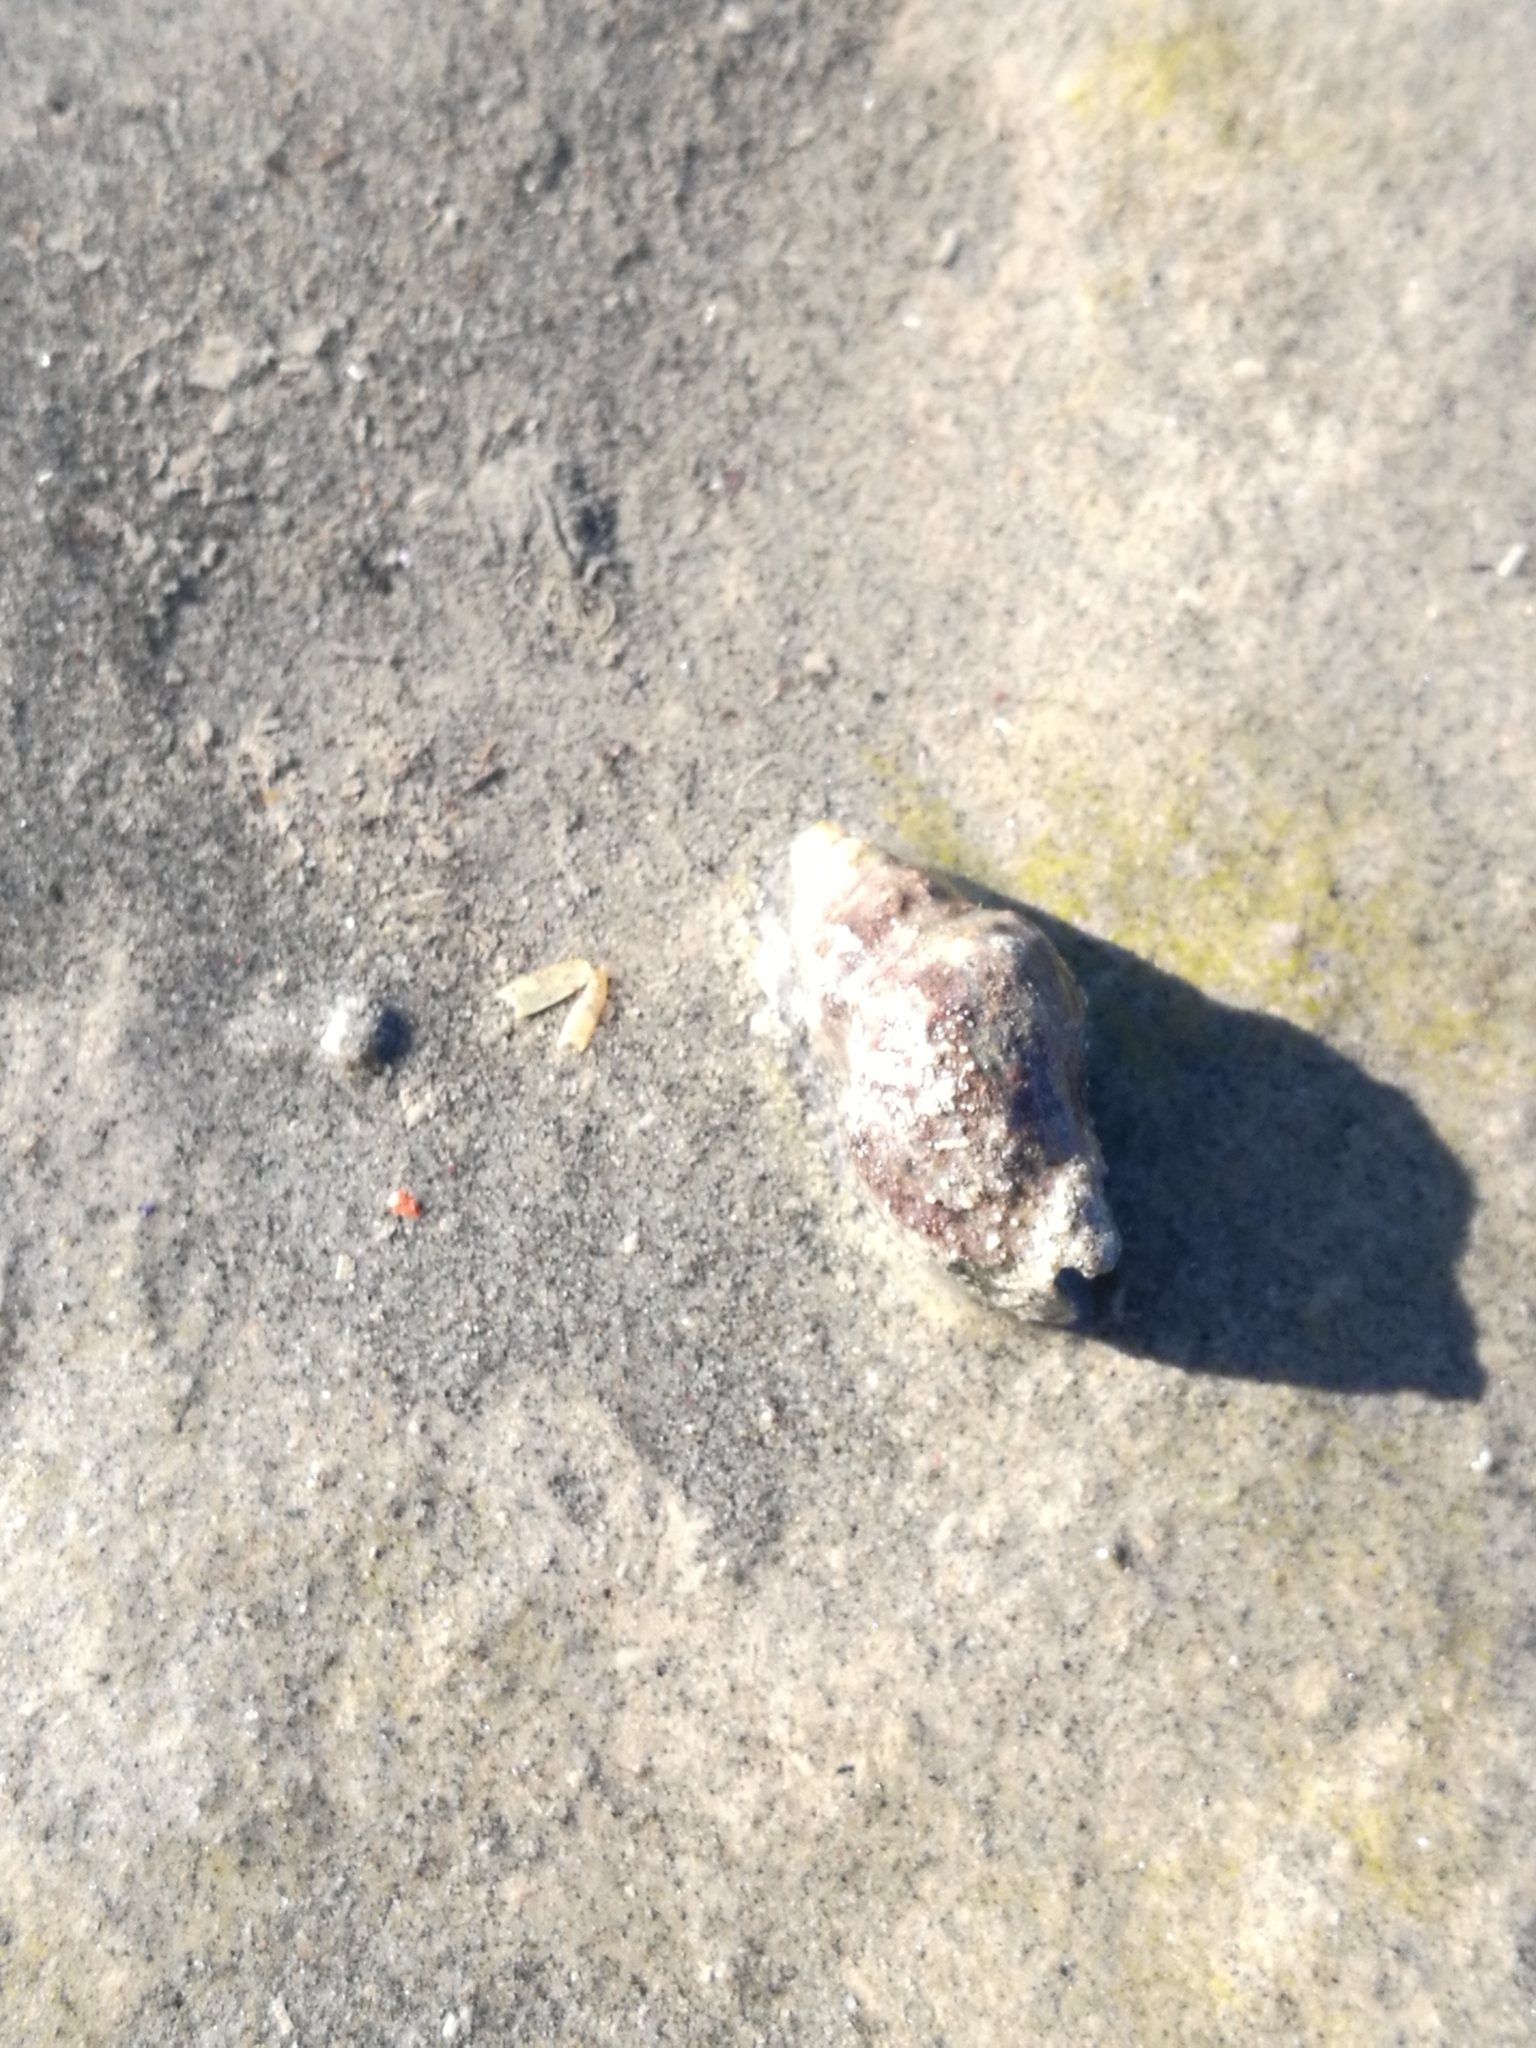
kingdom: Animalia
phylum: Mollusca
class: Gastropoda
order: Neogastropoda
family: Cominellidae
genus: Cominella
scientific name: Cominella glandiformis
